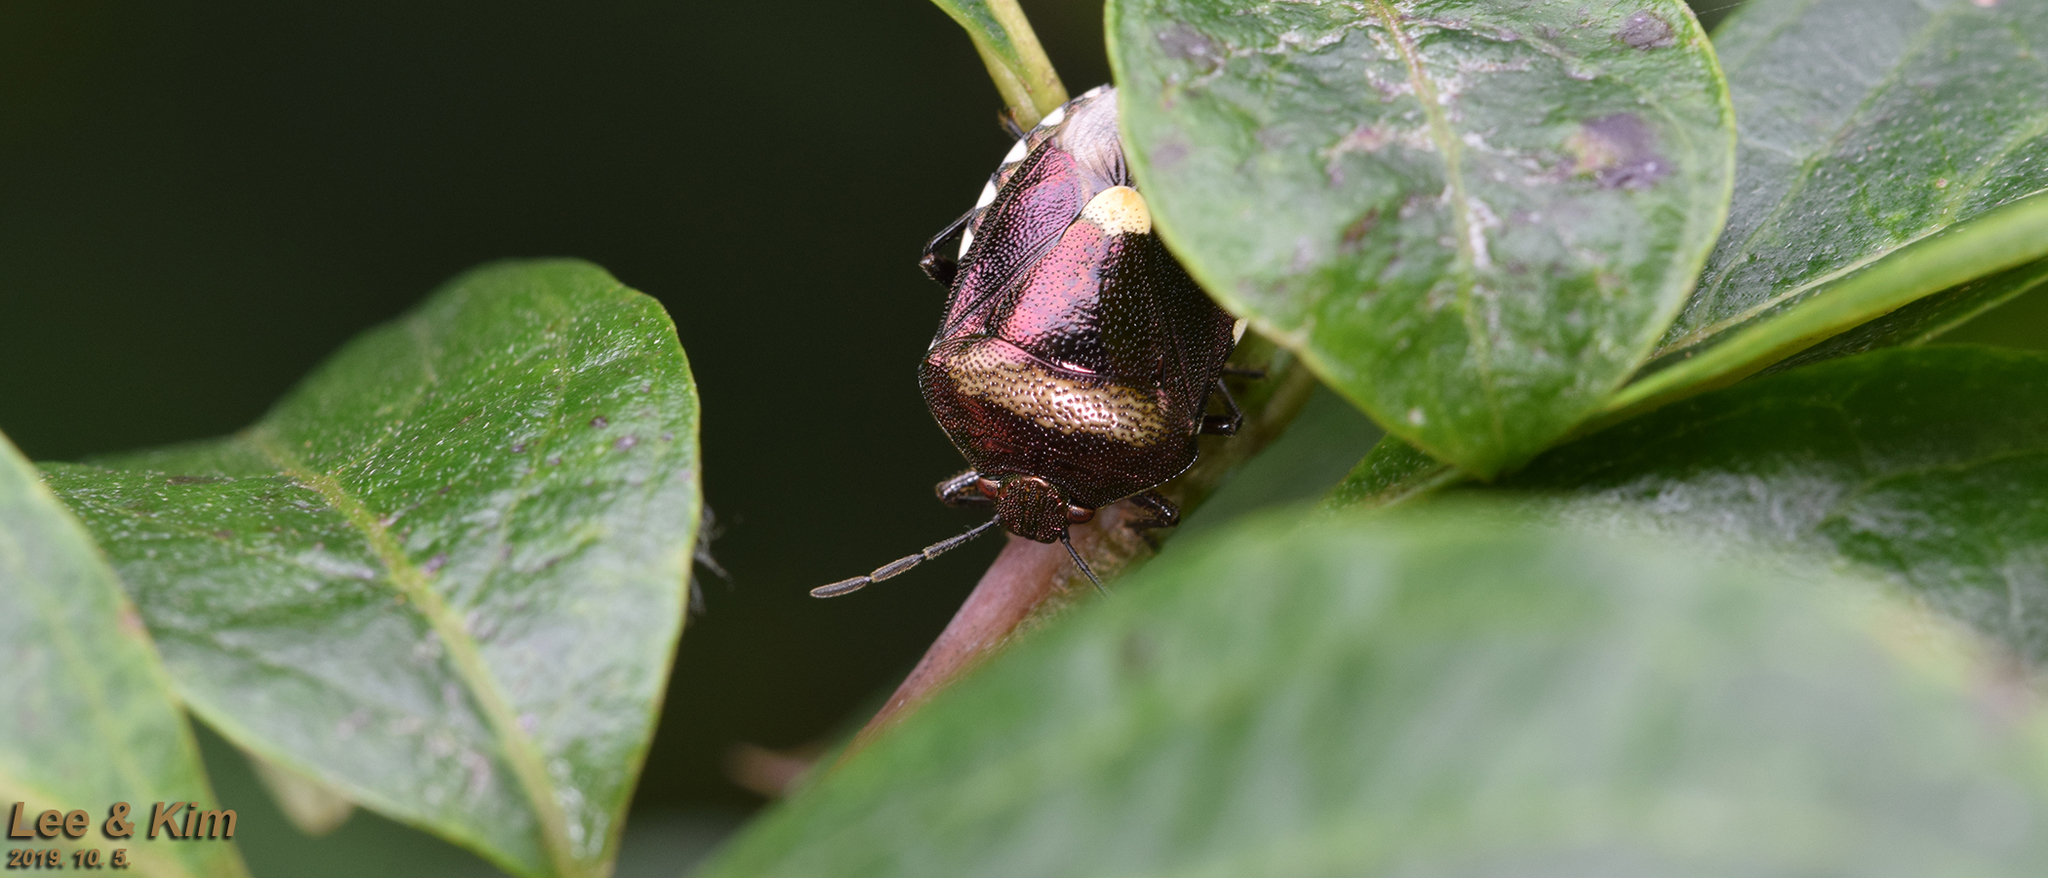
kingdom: Animalia
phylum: Arthropoda
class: Insecta
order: Hemiptera
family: Pentatomidae
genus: Menida
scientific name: Menida violacea
